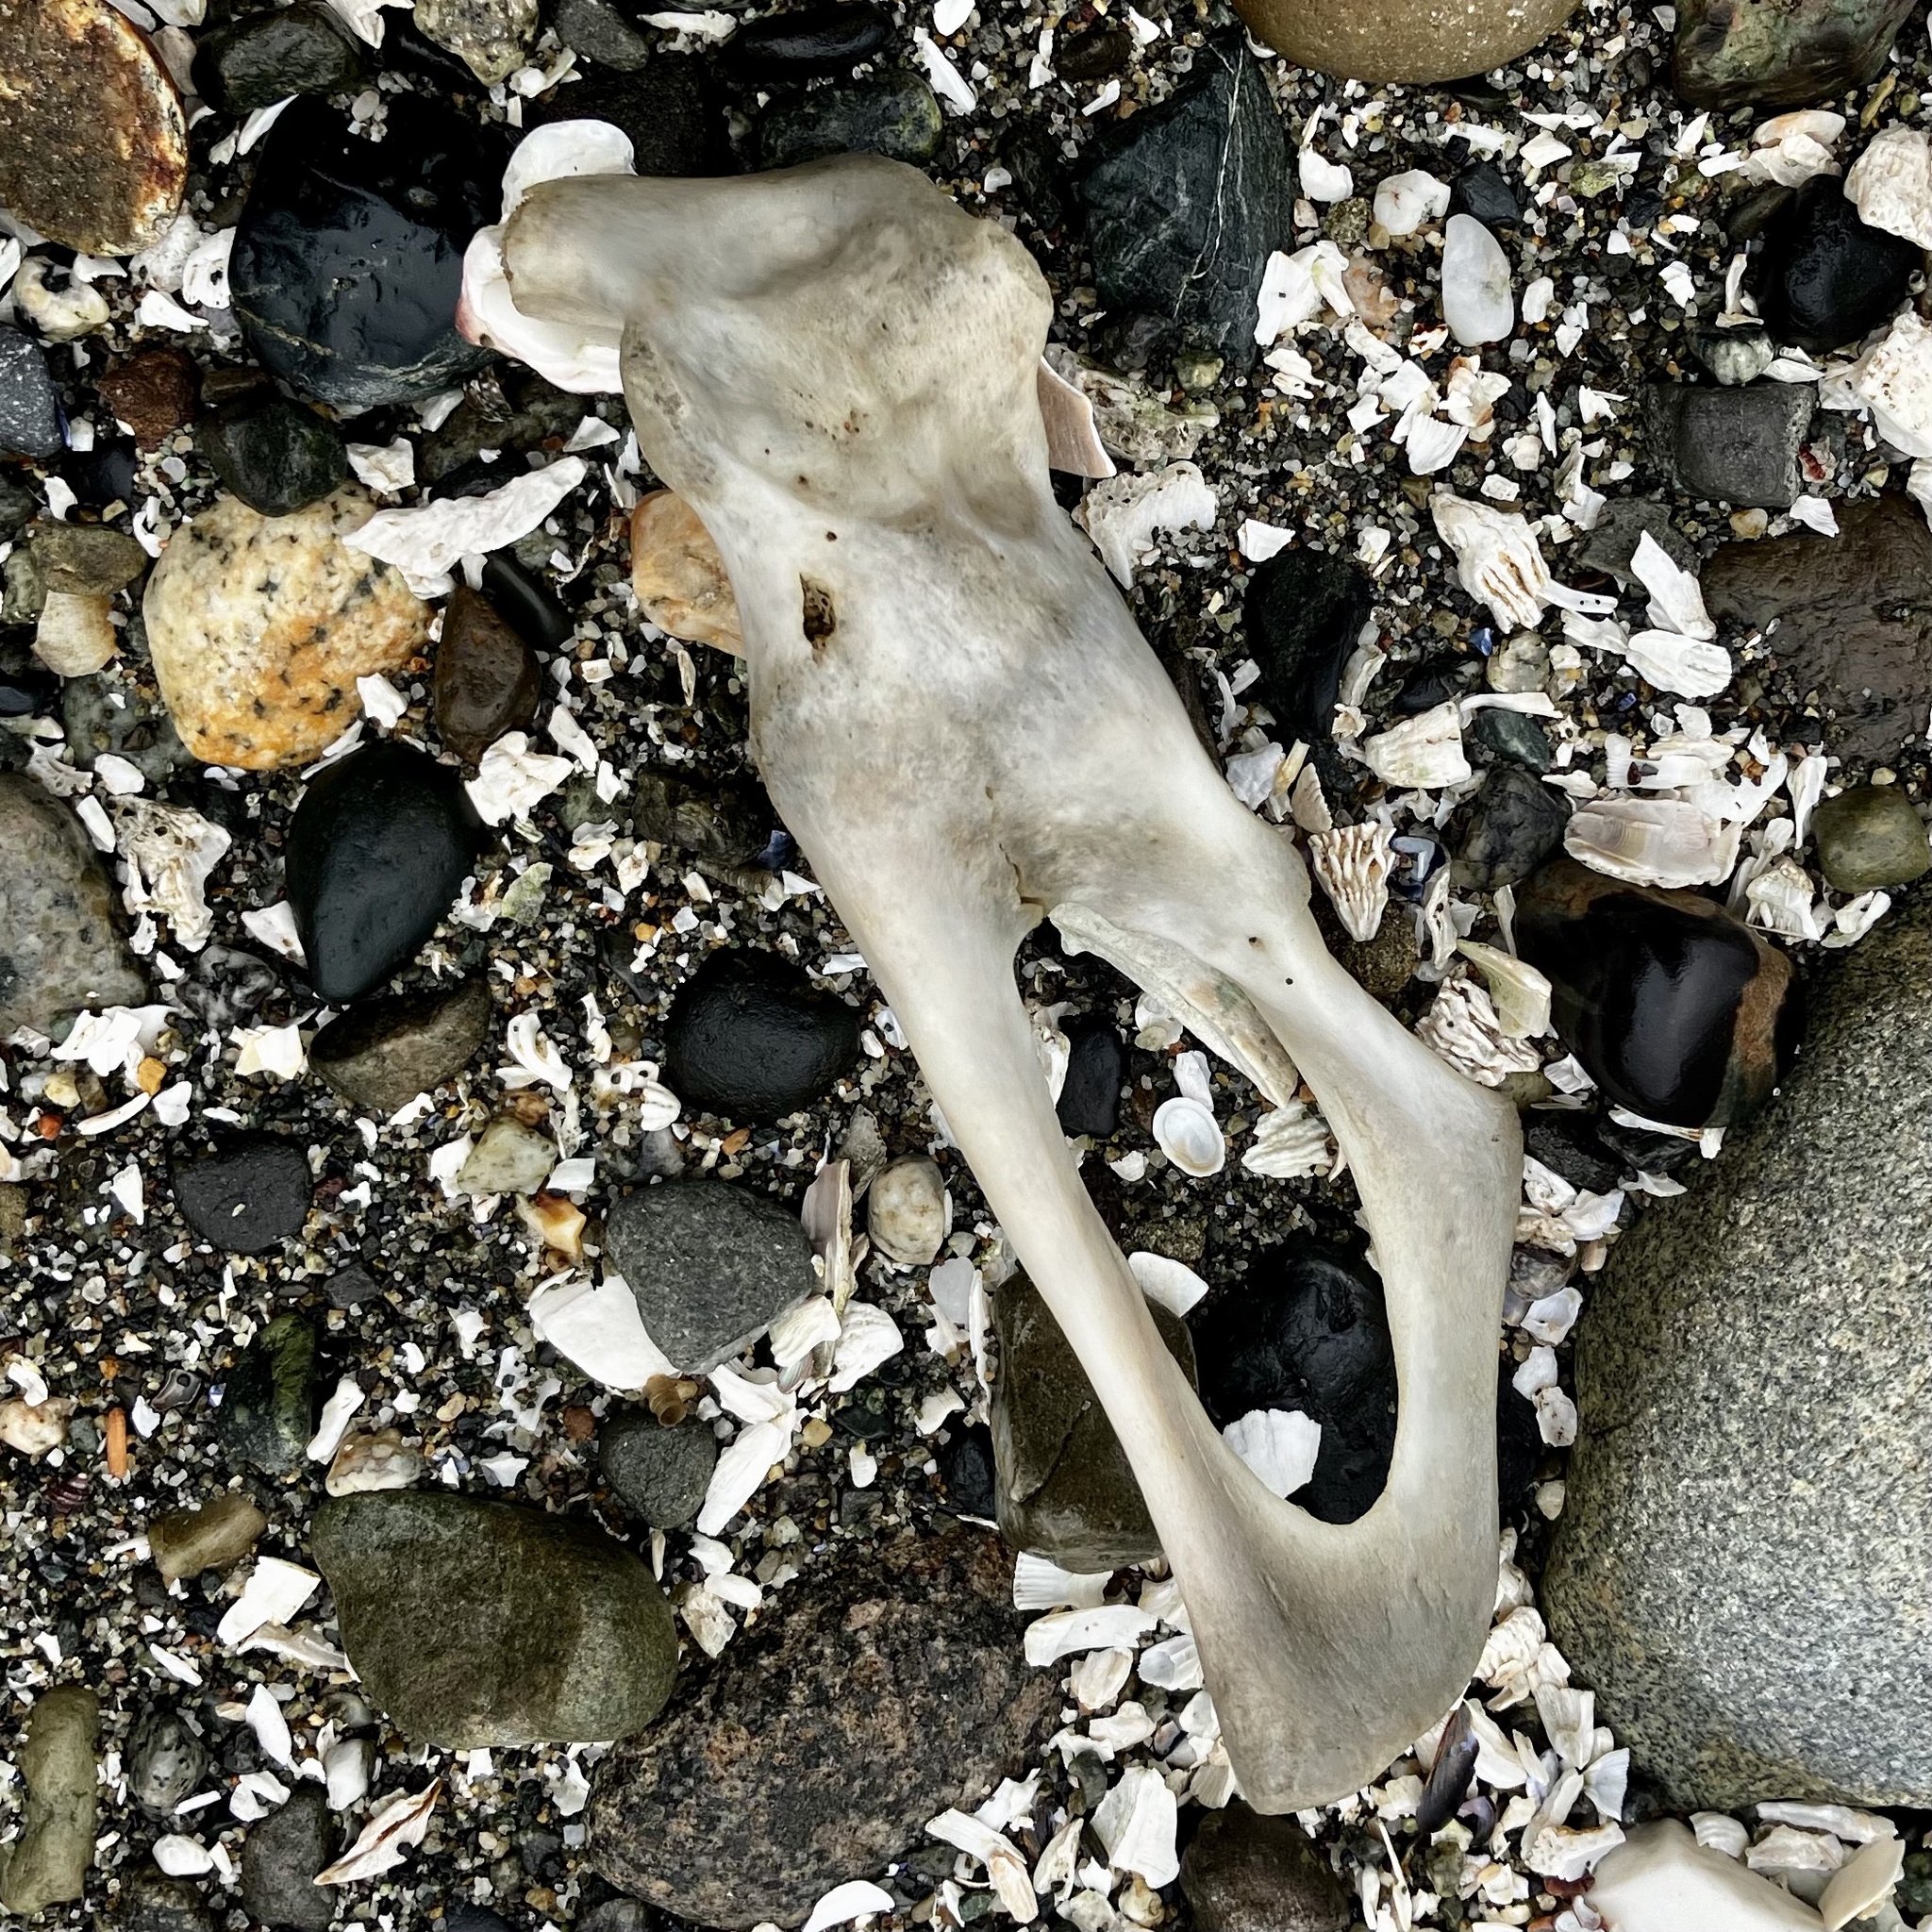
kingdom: Animalia
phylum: Chordata
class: Mammalia
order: Carnivora
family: Phocidae
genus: Phoca
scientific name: Phoca vitulina
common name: Harbor seal
